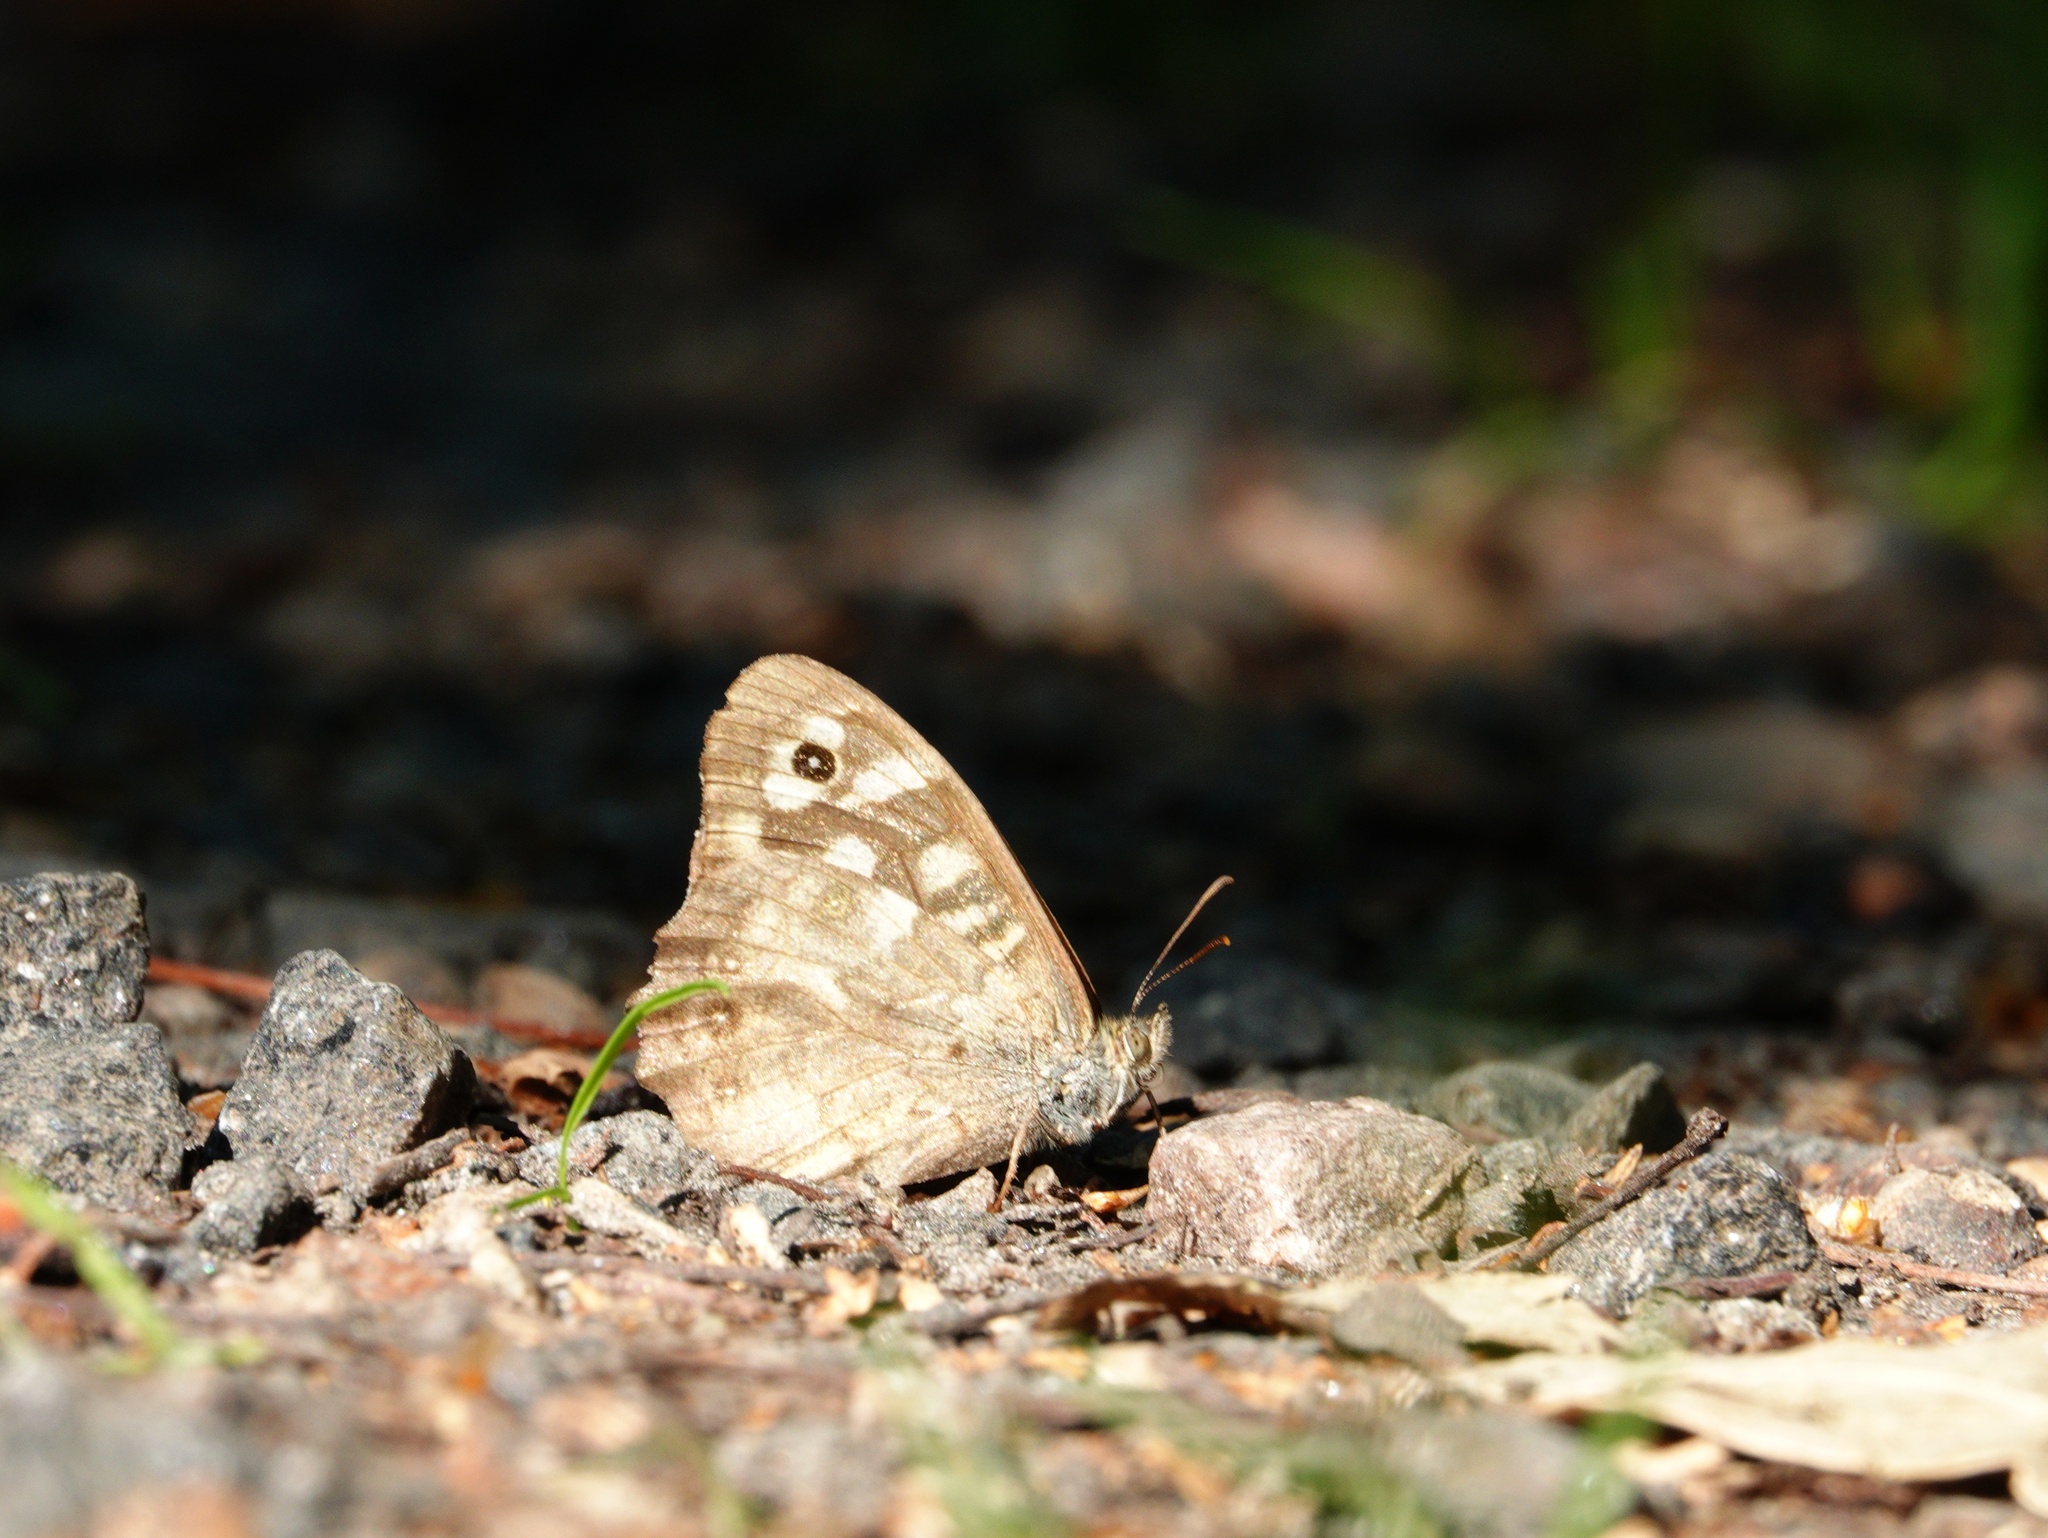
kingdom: Animalia
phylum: Arthropoda
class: Insecta
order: Lepidoptera
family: Nymphalidae
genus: Pararge
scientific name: Pararge aegeria
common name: Speckled wood
